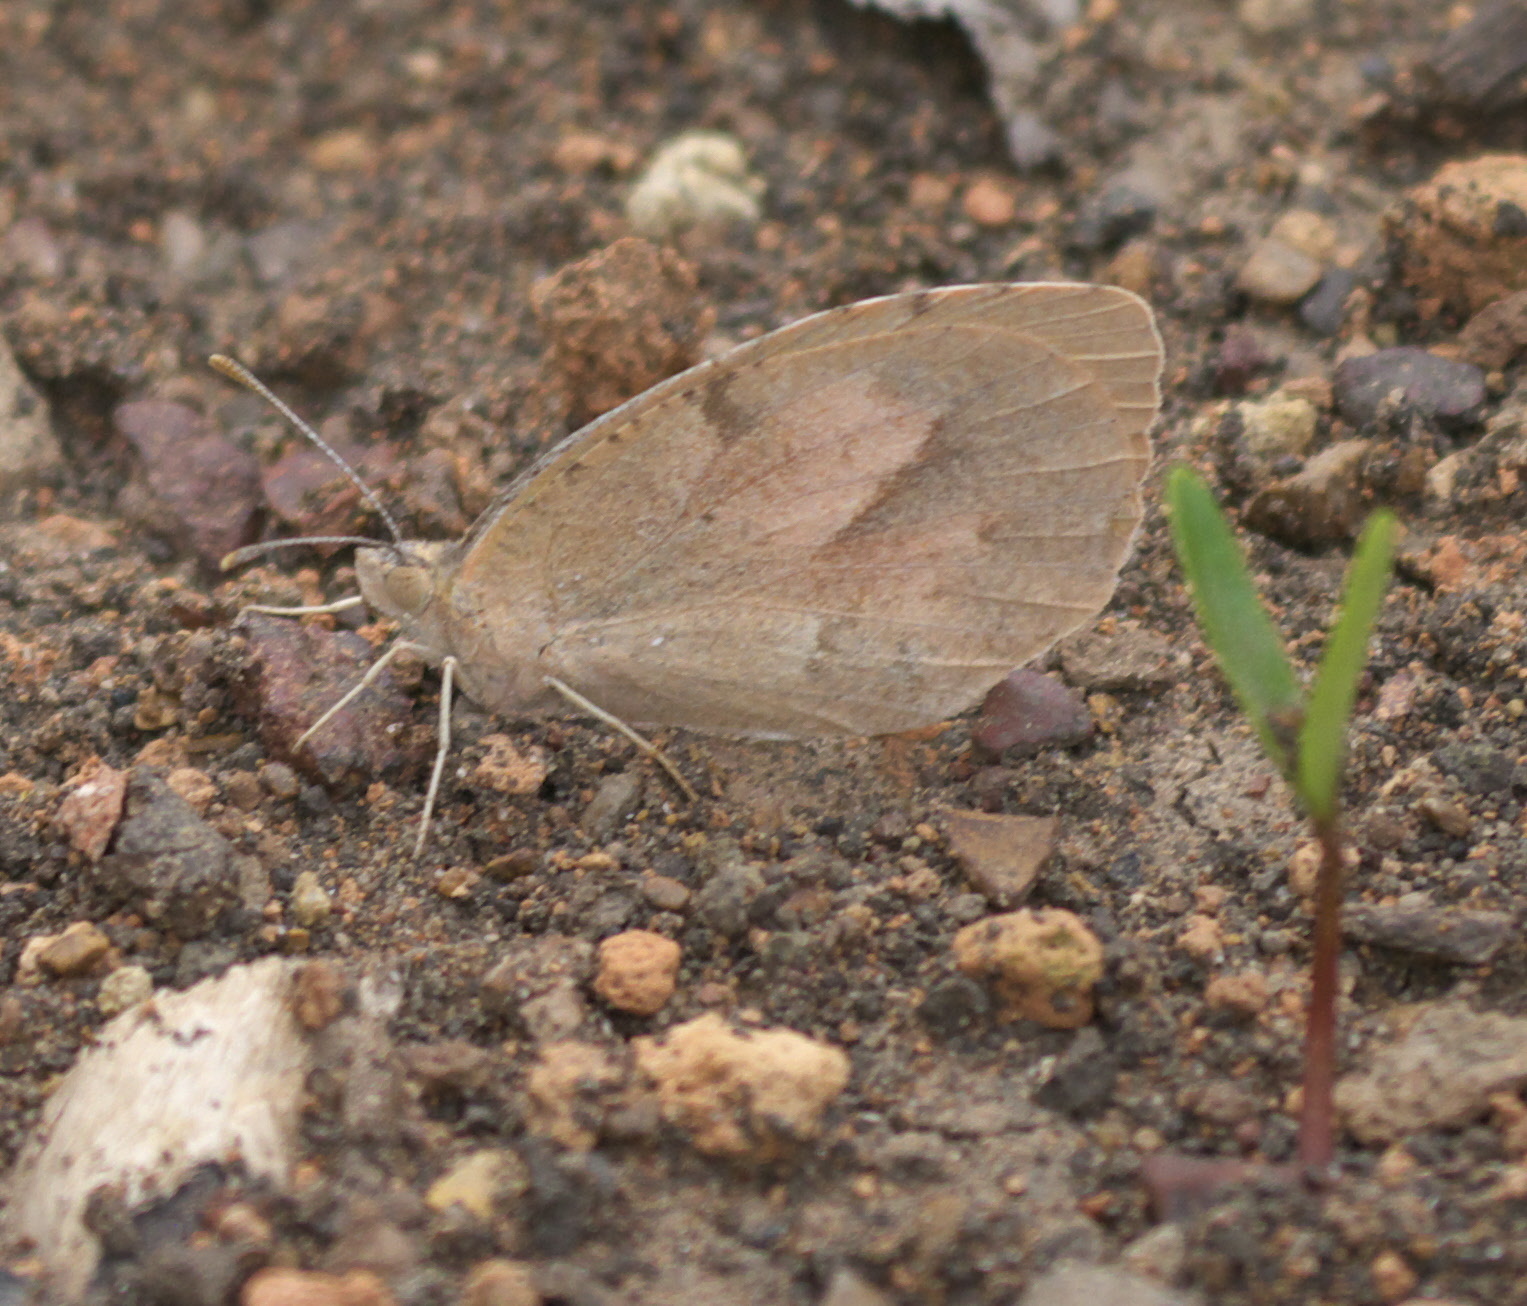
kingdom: Animalia
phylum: Arthropoda
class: Insecta
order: Lepidoptera
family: Pieridae
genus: Abaeis
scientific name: Abaeis nicippe
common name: Sleepy orange
